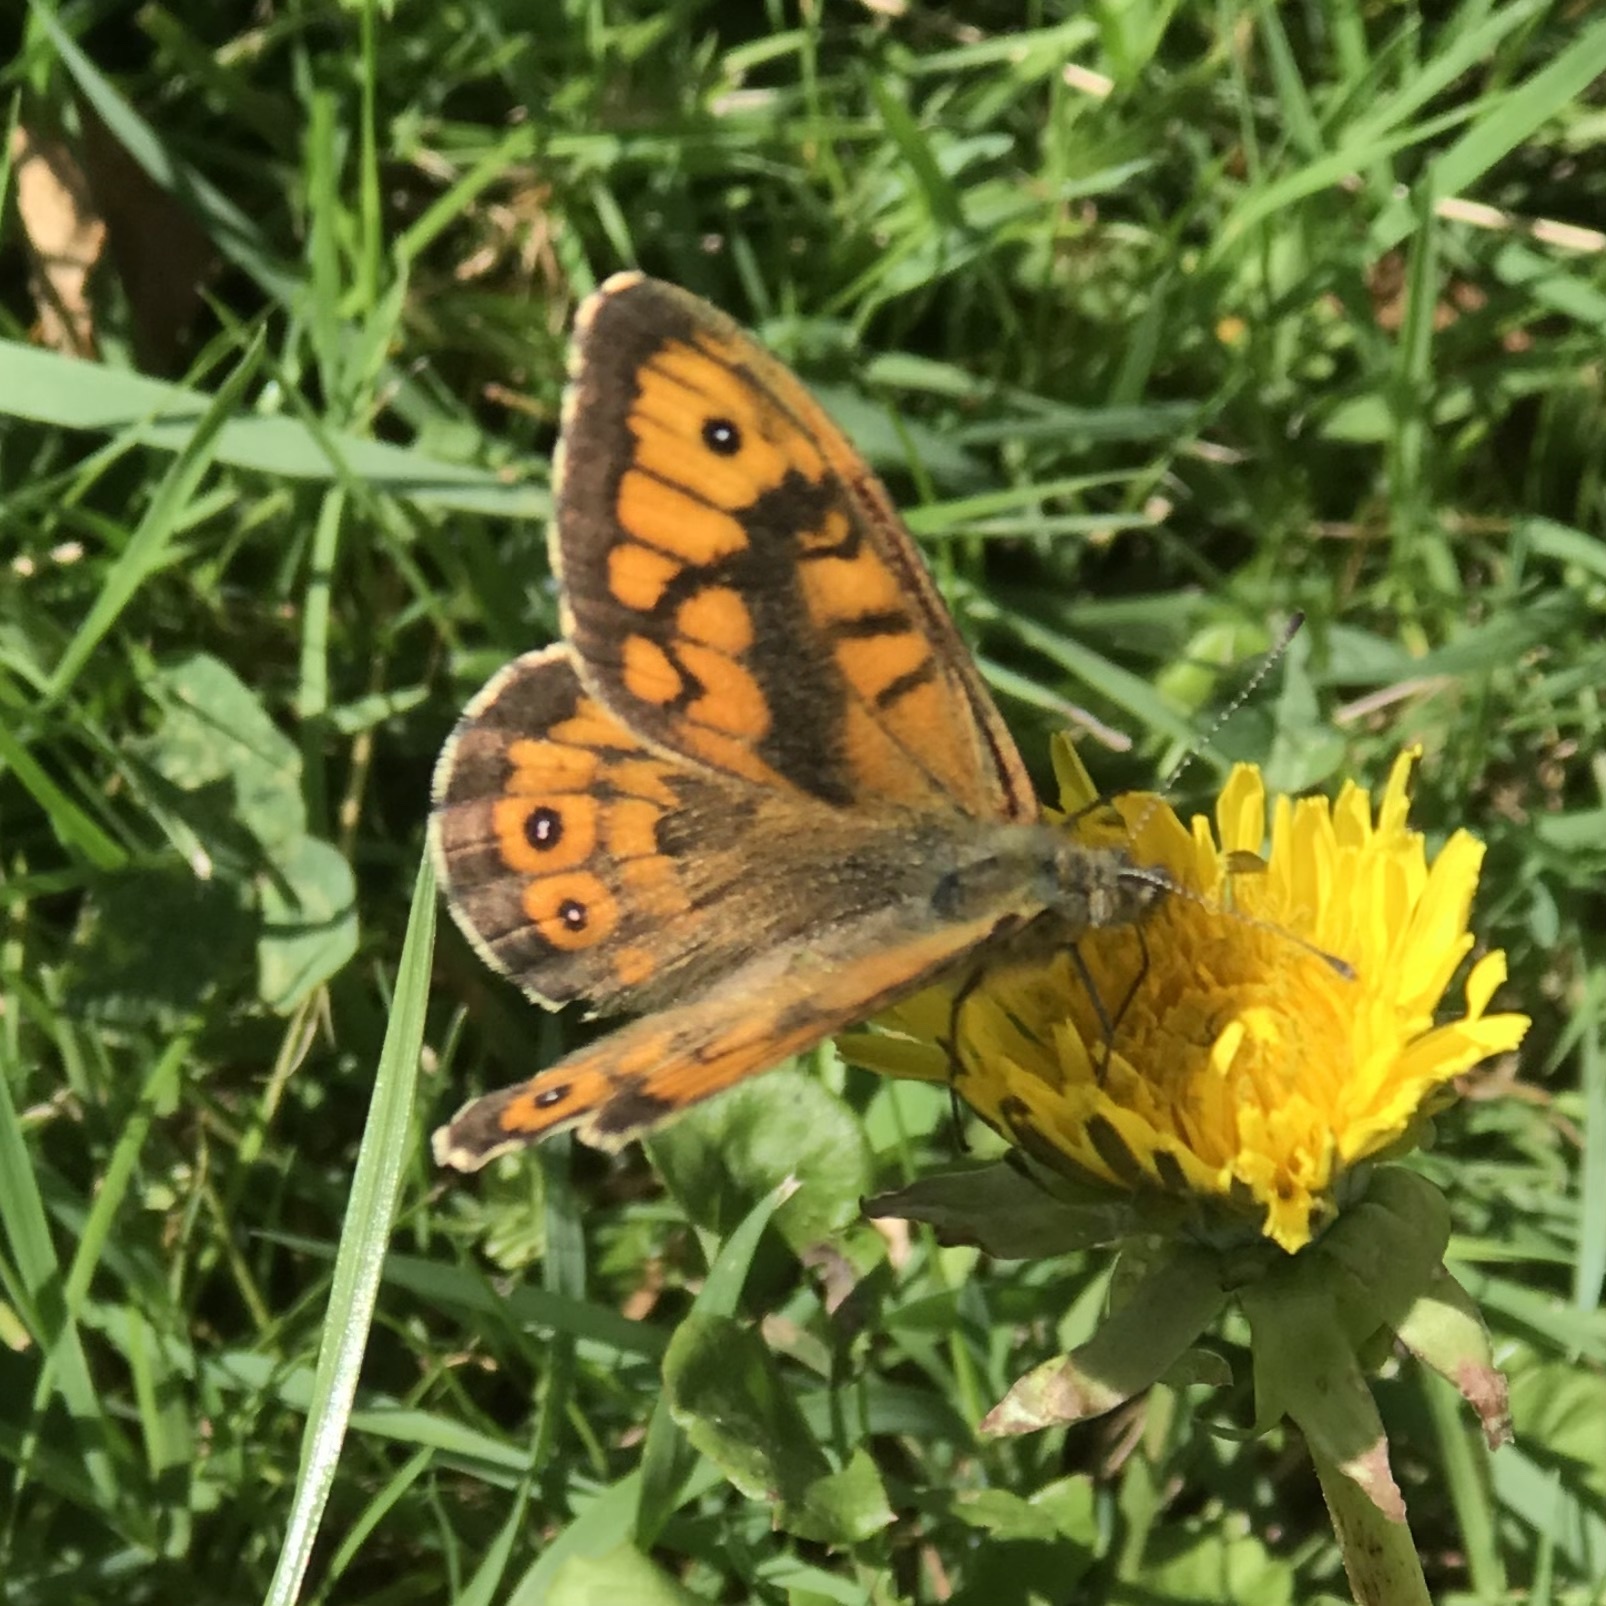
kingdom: Animalia
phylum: Arthropoda
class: Insecta
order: Lepidoptera
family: Nymphalidae
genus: Pararge
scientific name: Pararge Lasiommata megera
